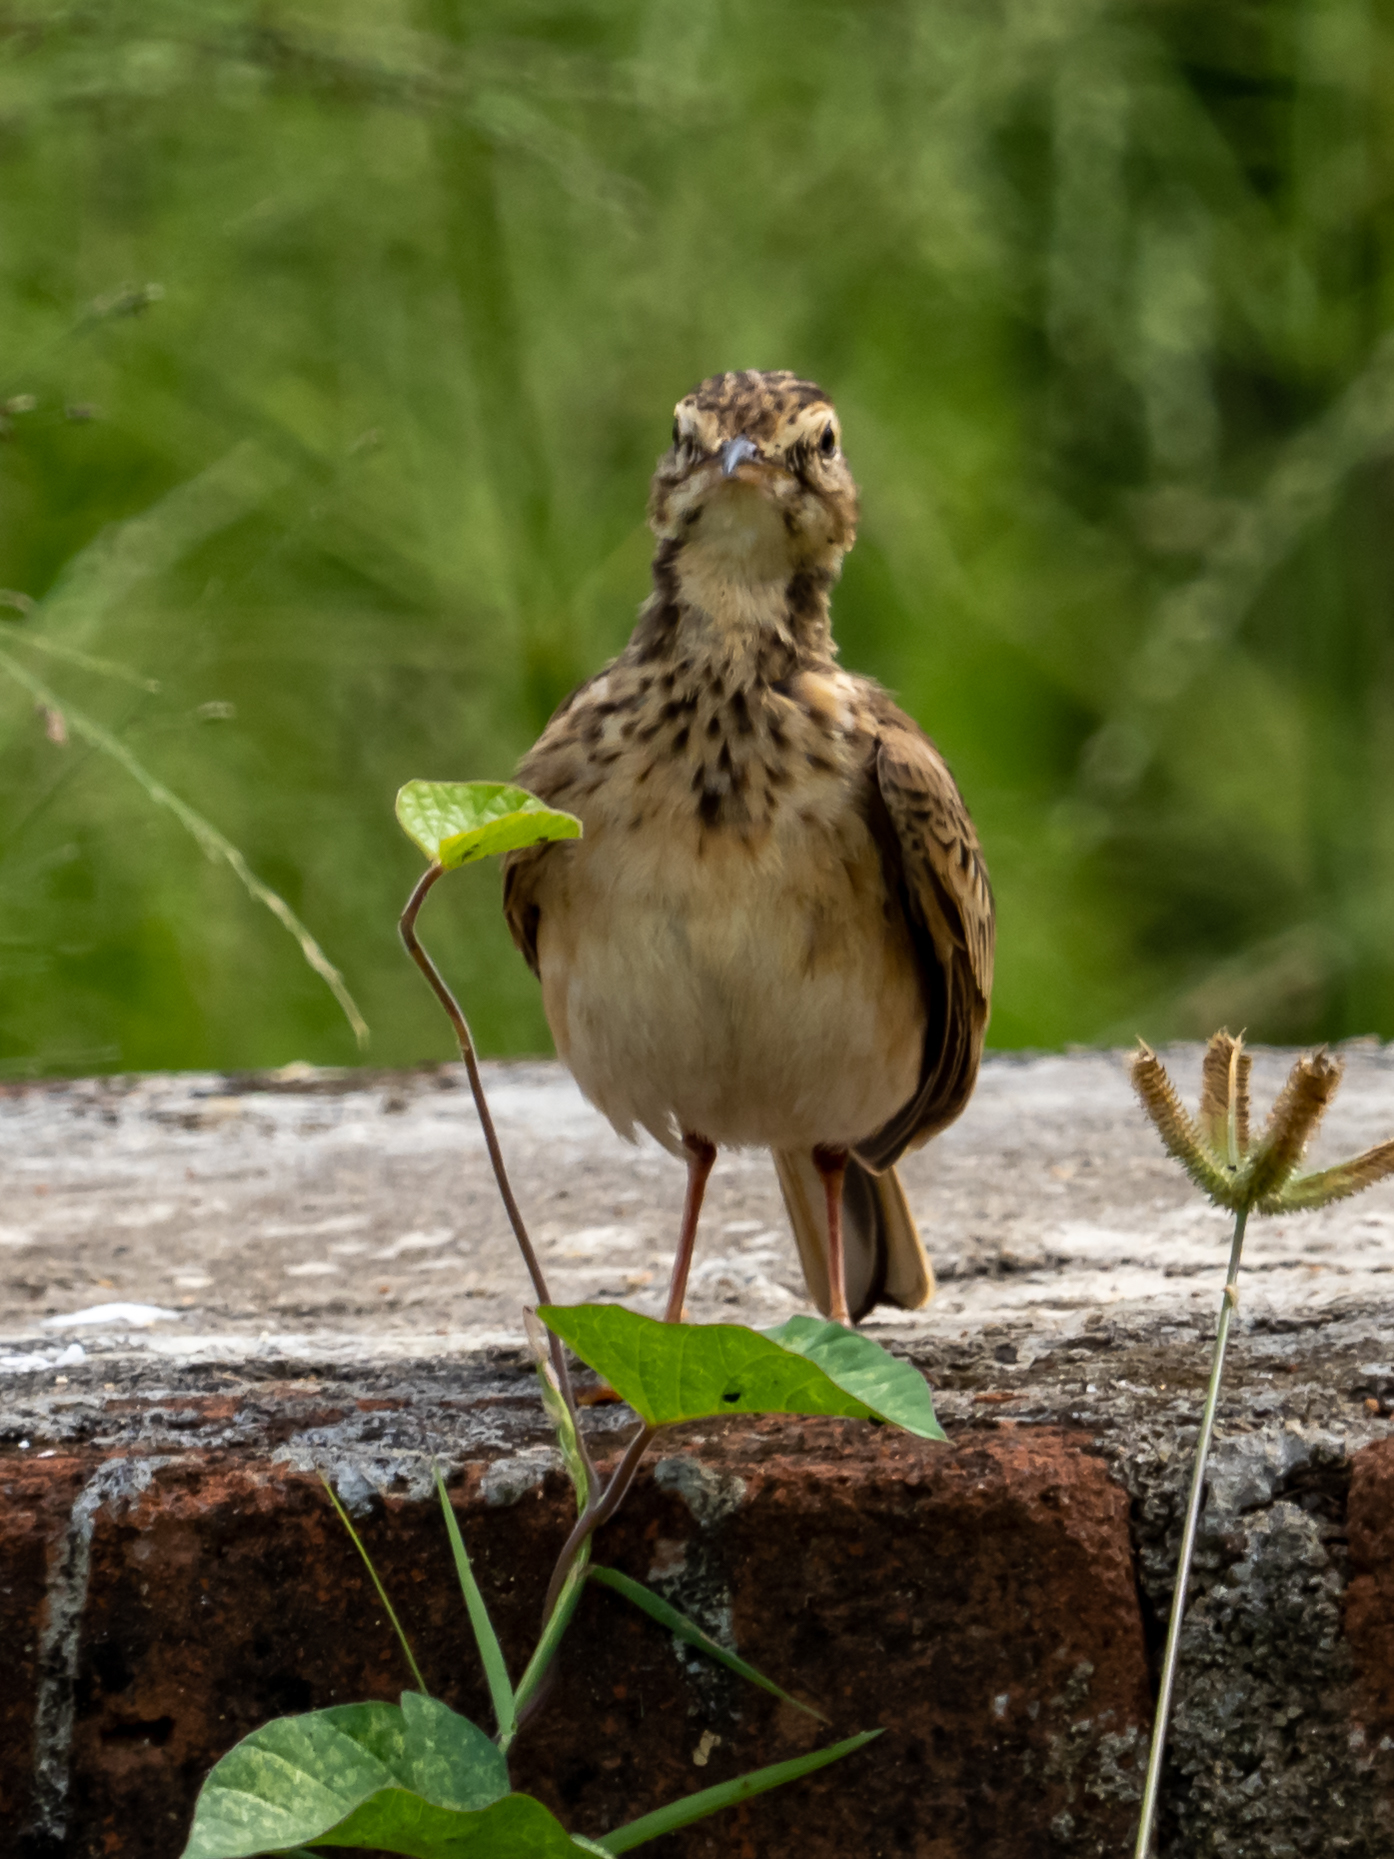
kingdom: Animalia
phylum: Chordata
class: Aves
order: Passeriformes
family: Motacillidae
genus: Anthus
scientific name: Anthus rufulus
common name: Paddyfield pipit
